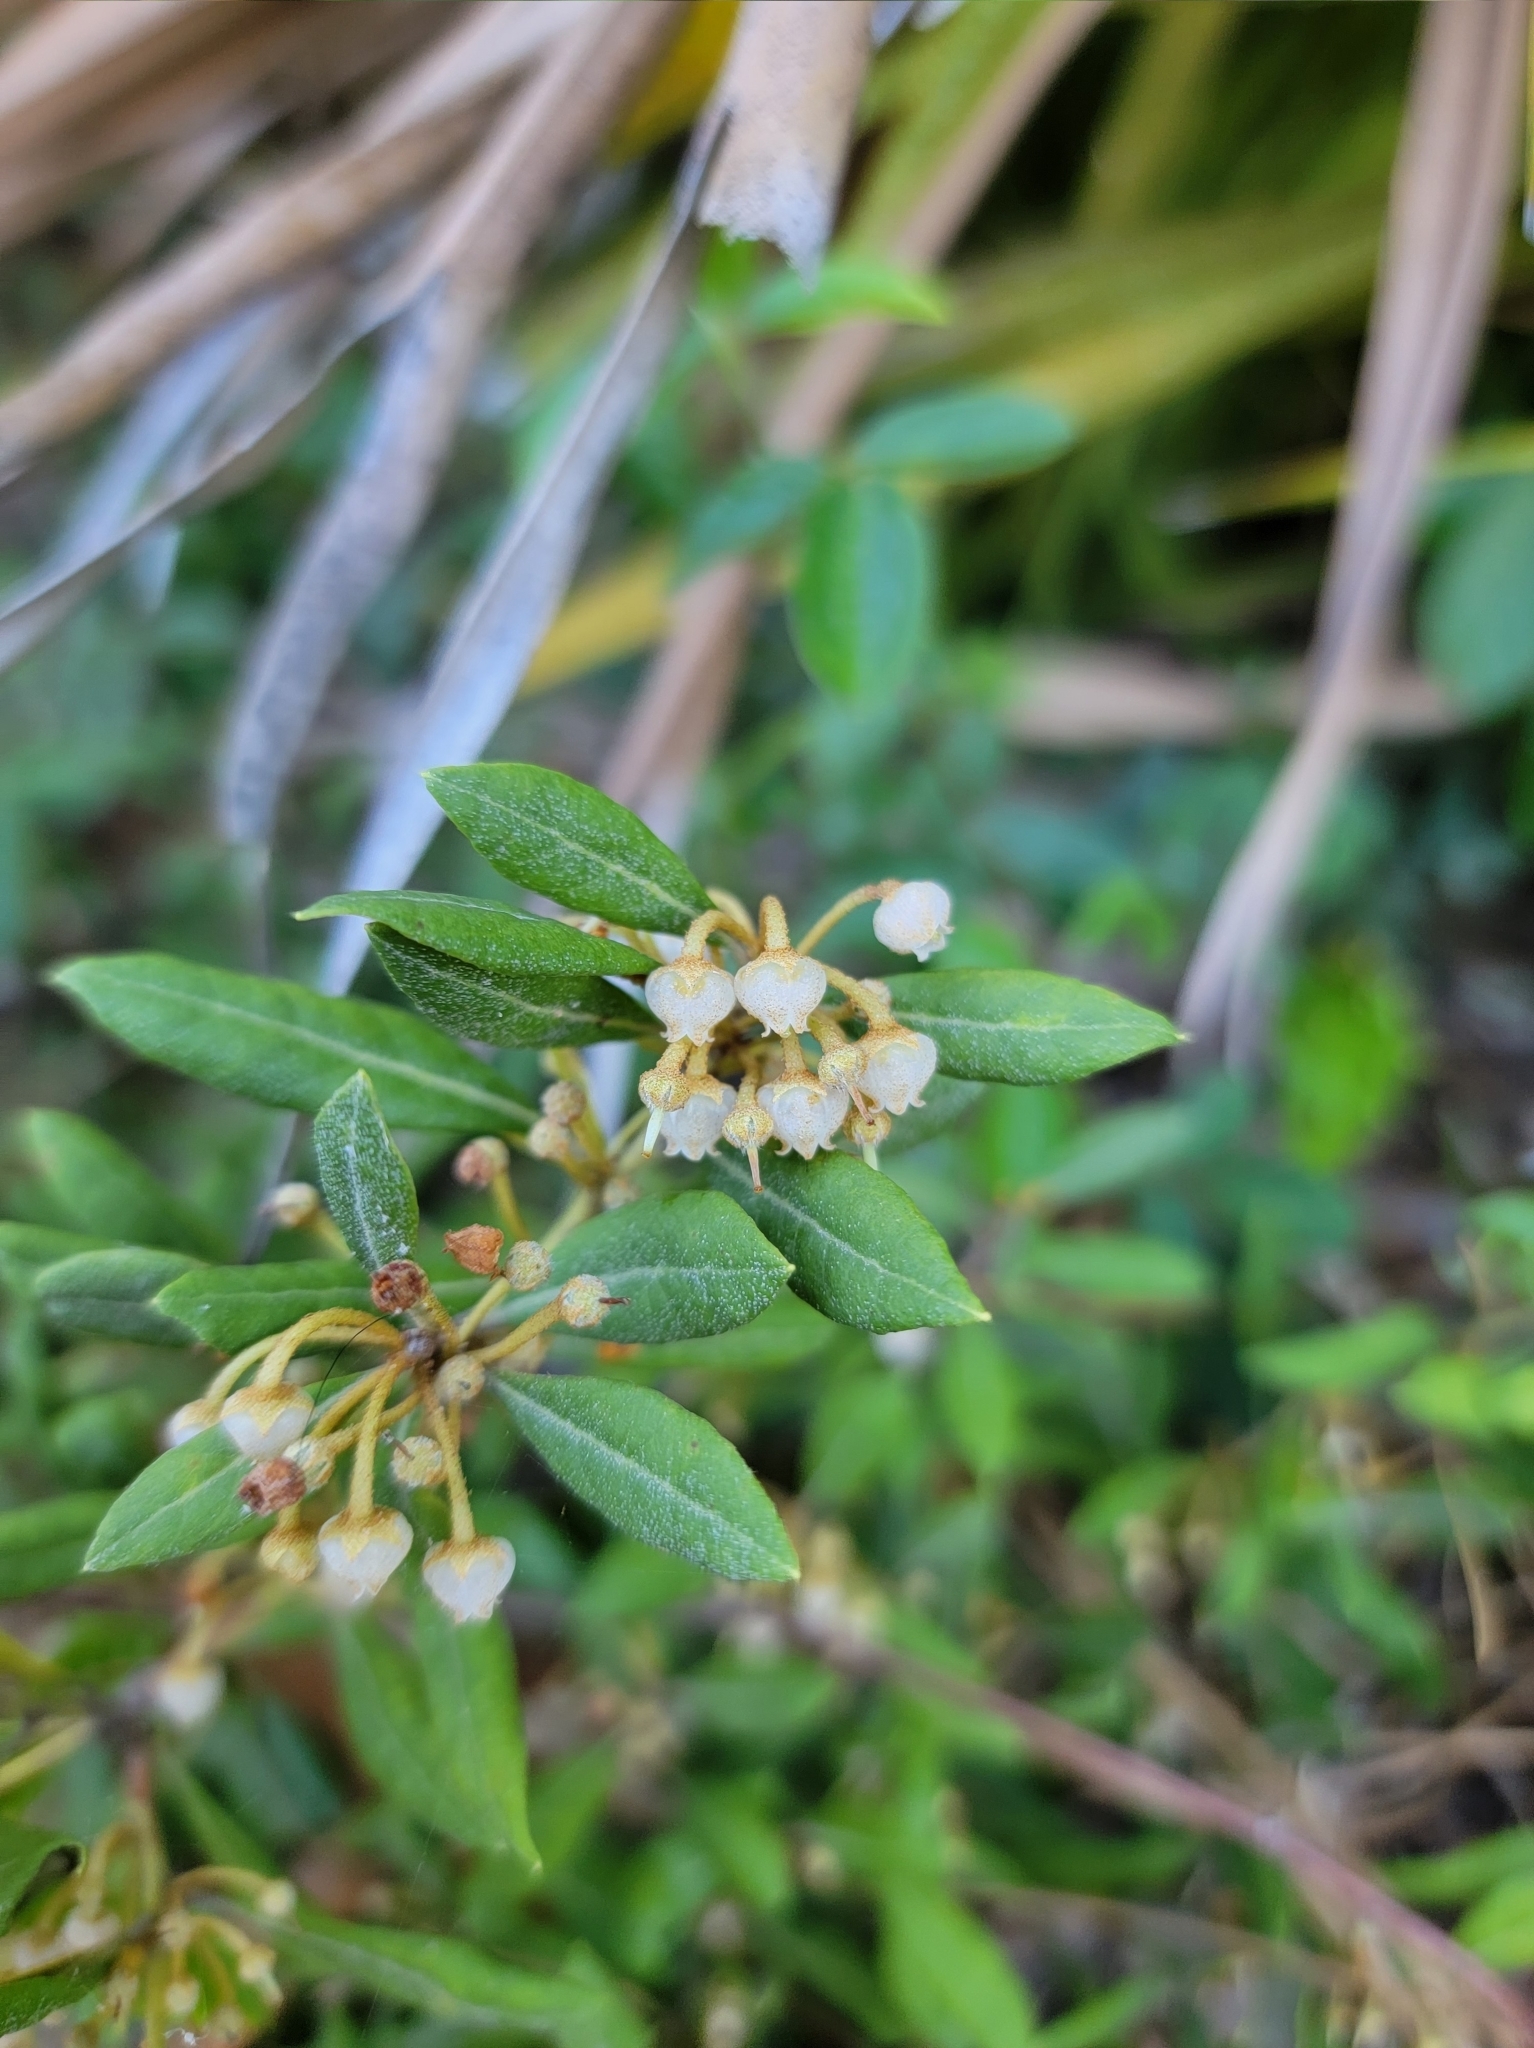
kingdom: Plantae
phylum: Tracheophyta
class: Magnoliopsida
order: Ericales
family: Ericaceae
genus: Lyonia
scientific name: Lyonia ferruginea
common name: Rusty lyonia
